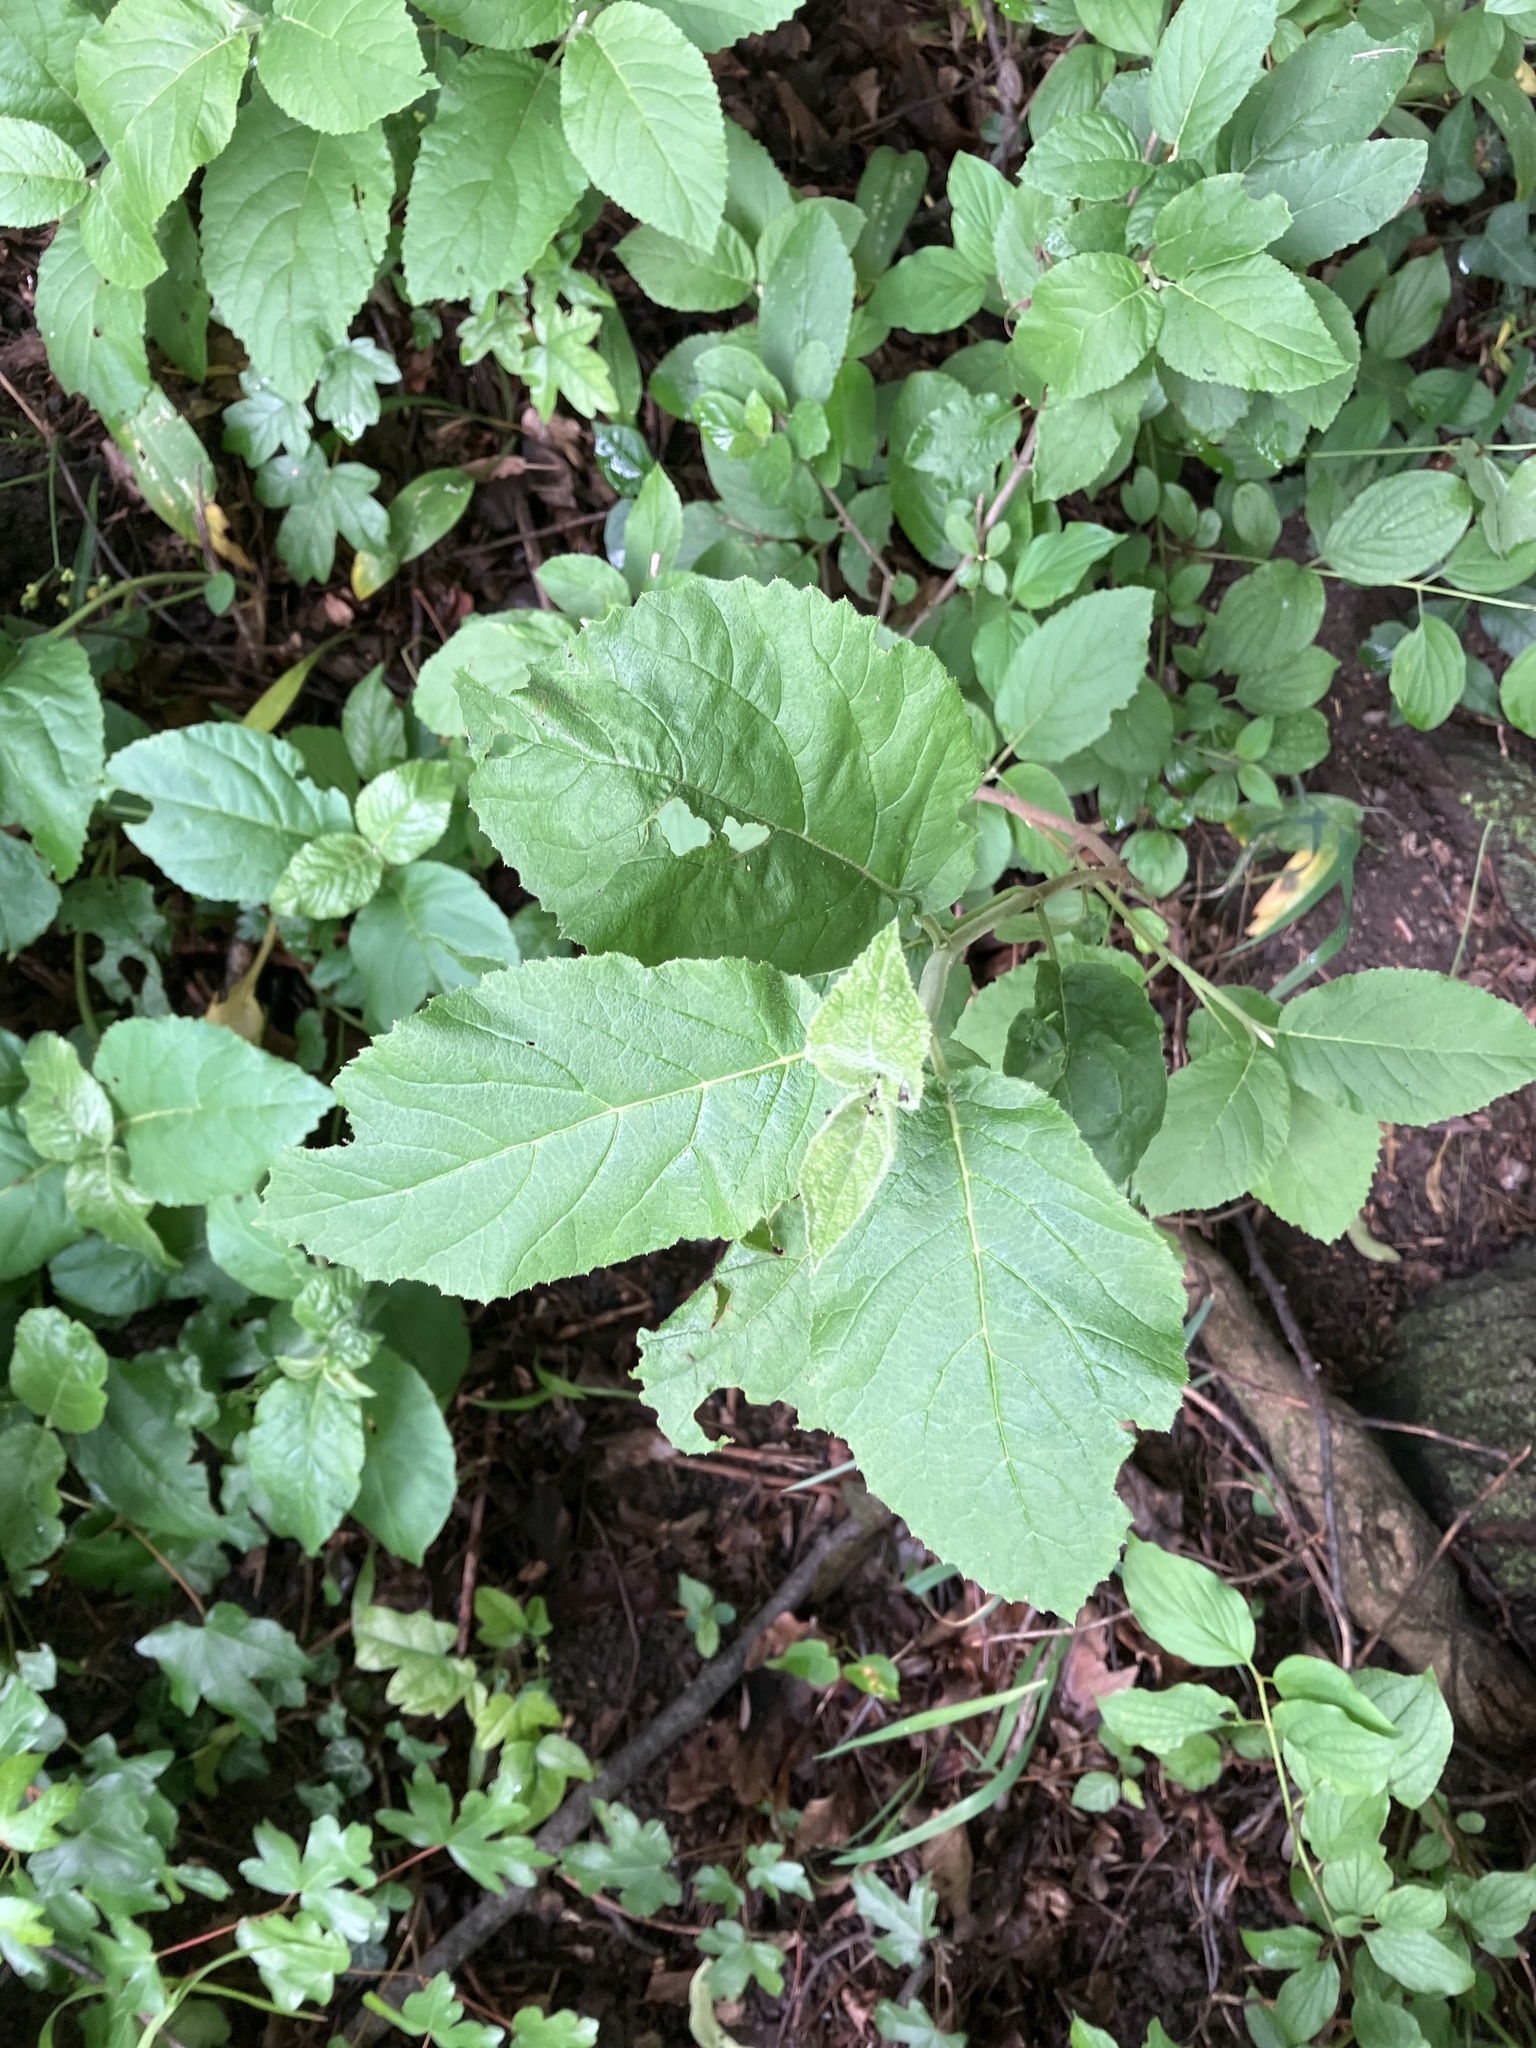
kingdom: Plantae
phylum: Tracheophyta
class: Magnoliopsida
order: Dipsacales
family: Viburnaceae
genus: Viburnum
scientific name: Viburnum lantana
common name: Wayfaring tree
